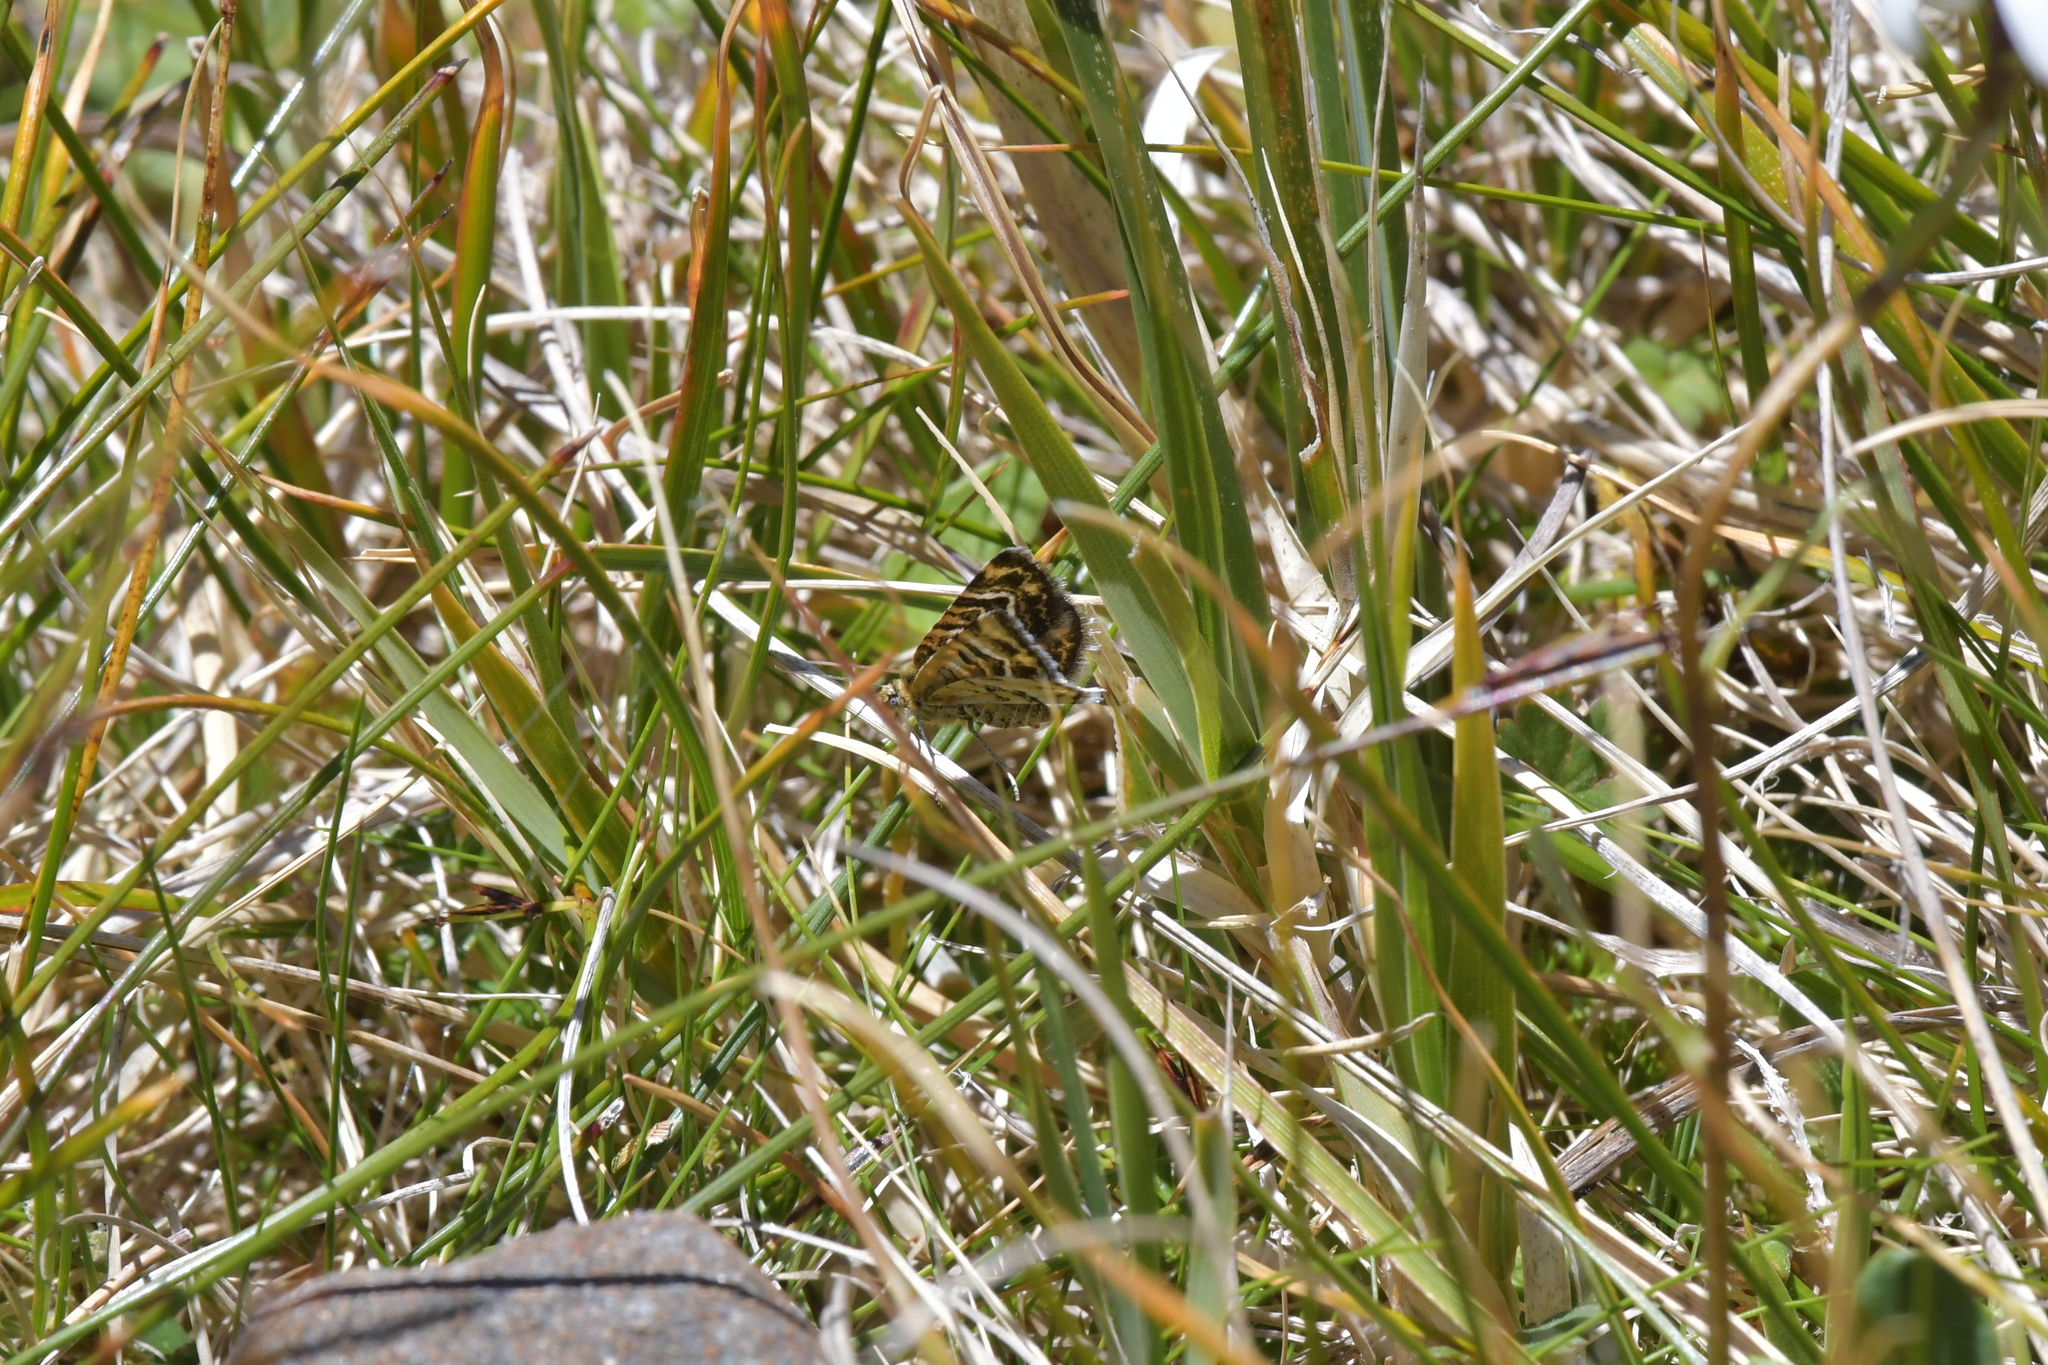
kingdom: Animalia
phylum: Arthropoda
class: Insecta
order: Lepidoptera
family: Geometridae
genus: Notoreas
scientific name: Notoreas mechanitis
